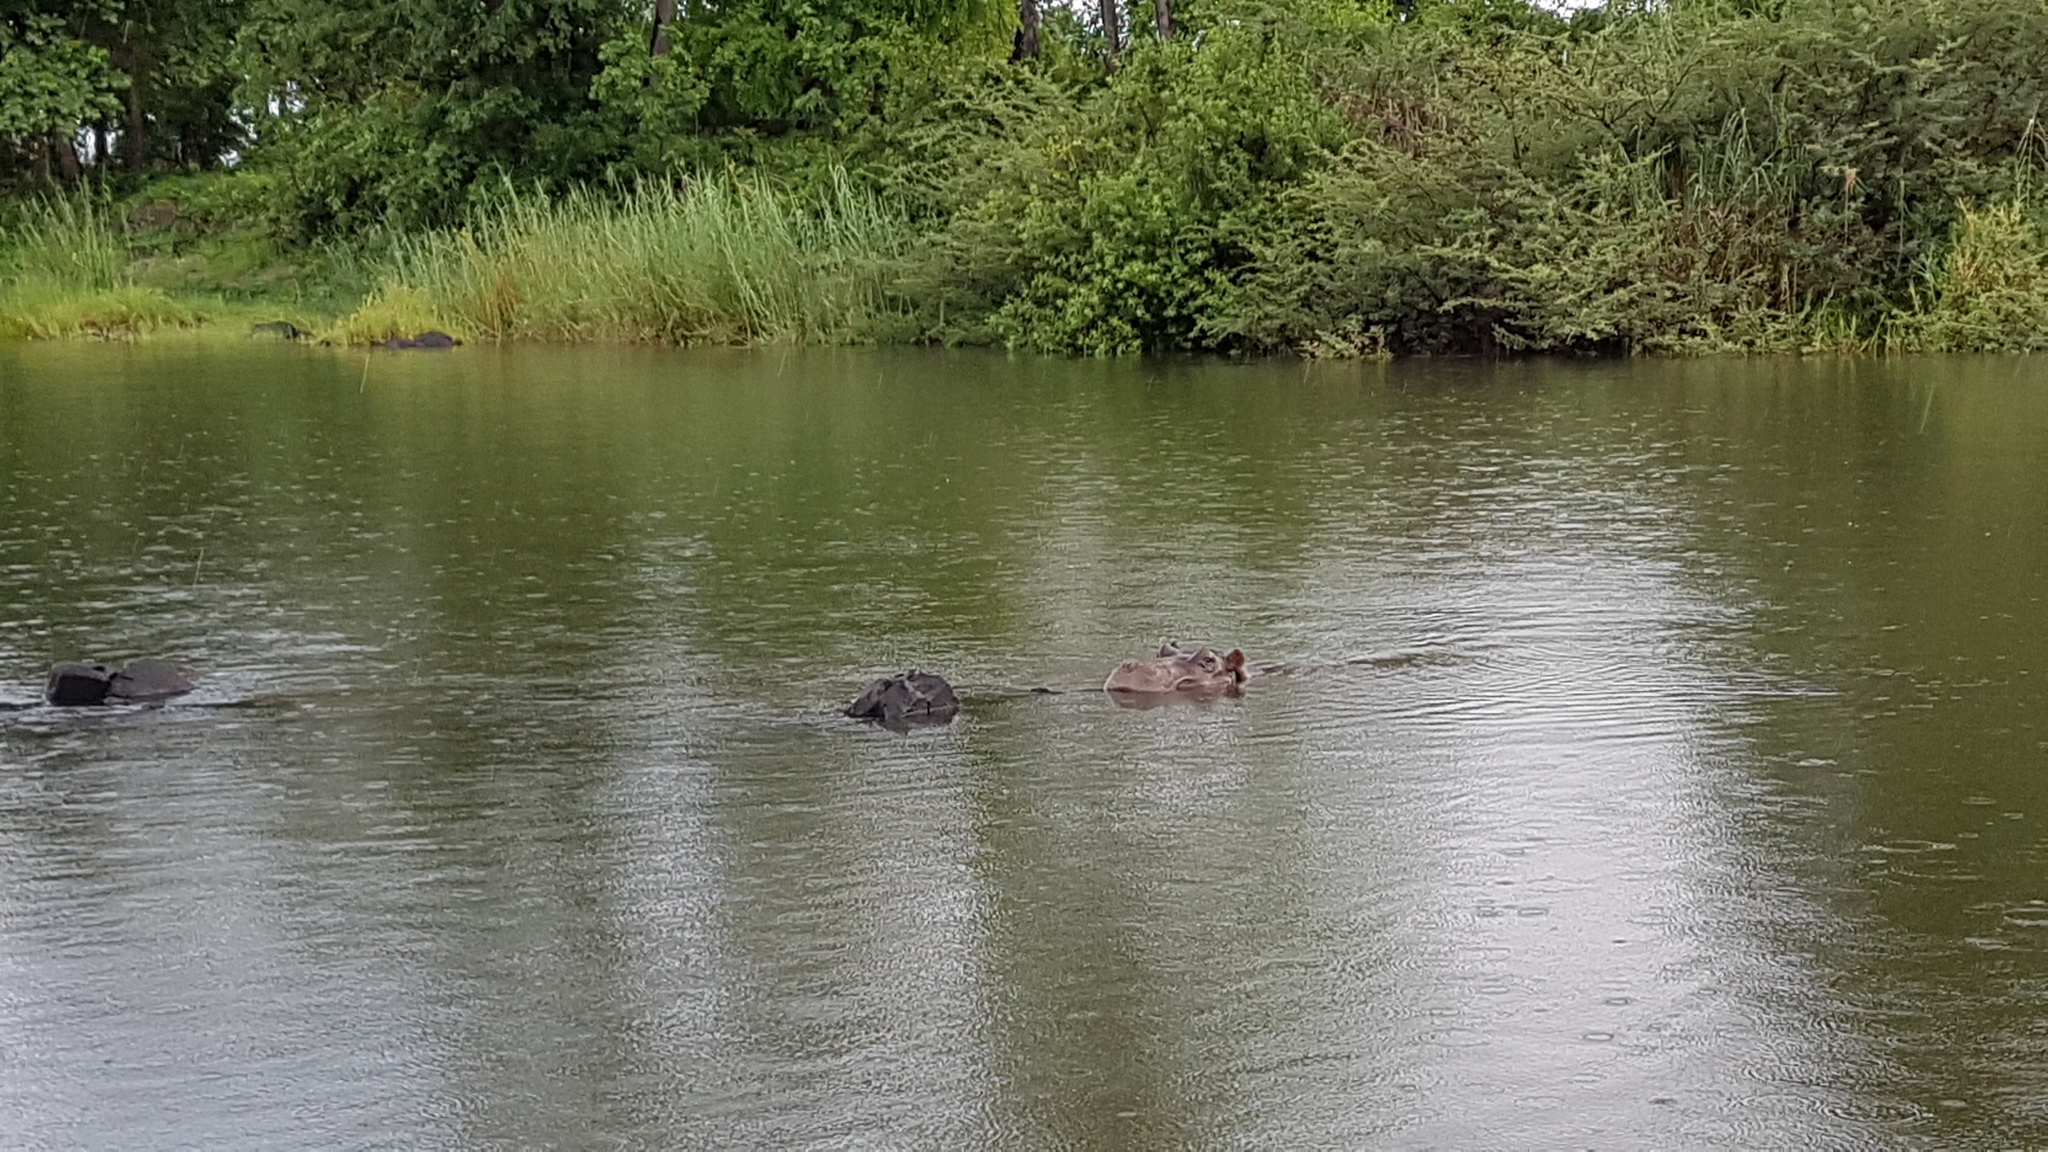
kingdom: Animalia
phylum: Chordata
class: Mammalia
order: Artiodactyla
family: Hippopotamidae
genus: Hippopotamus
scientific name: Hippopotamus amphibius
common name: Common hippopotamus
